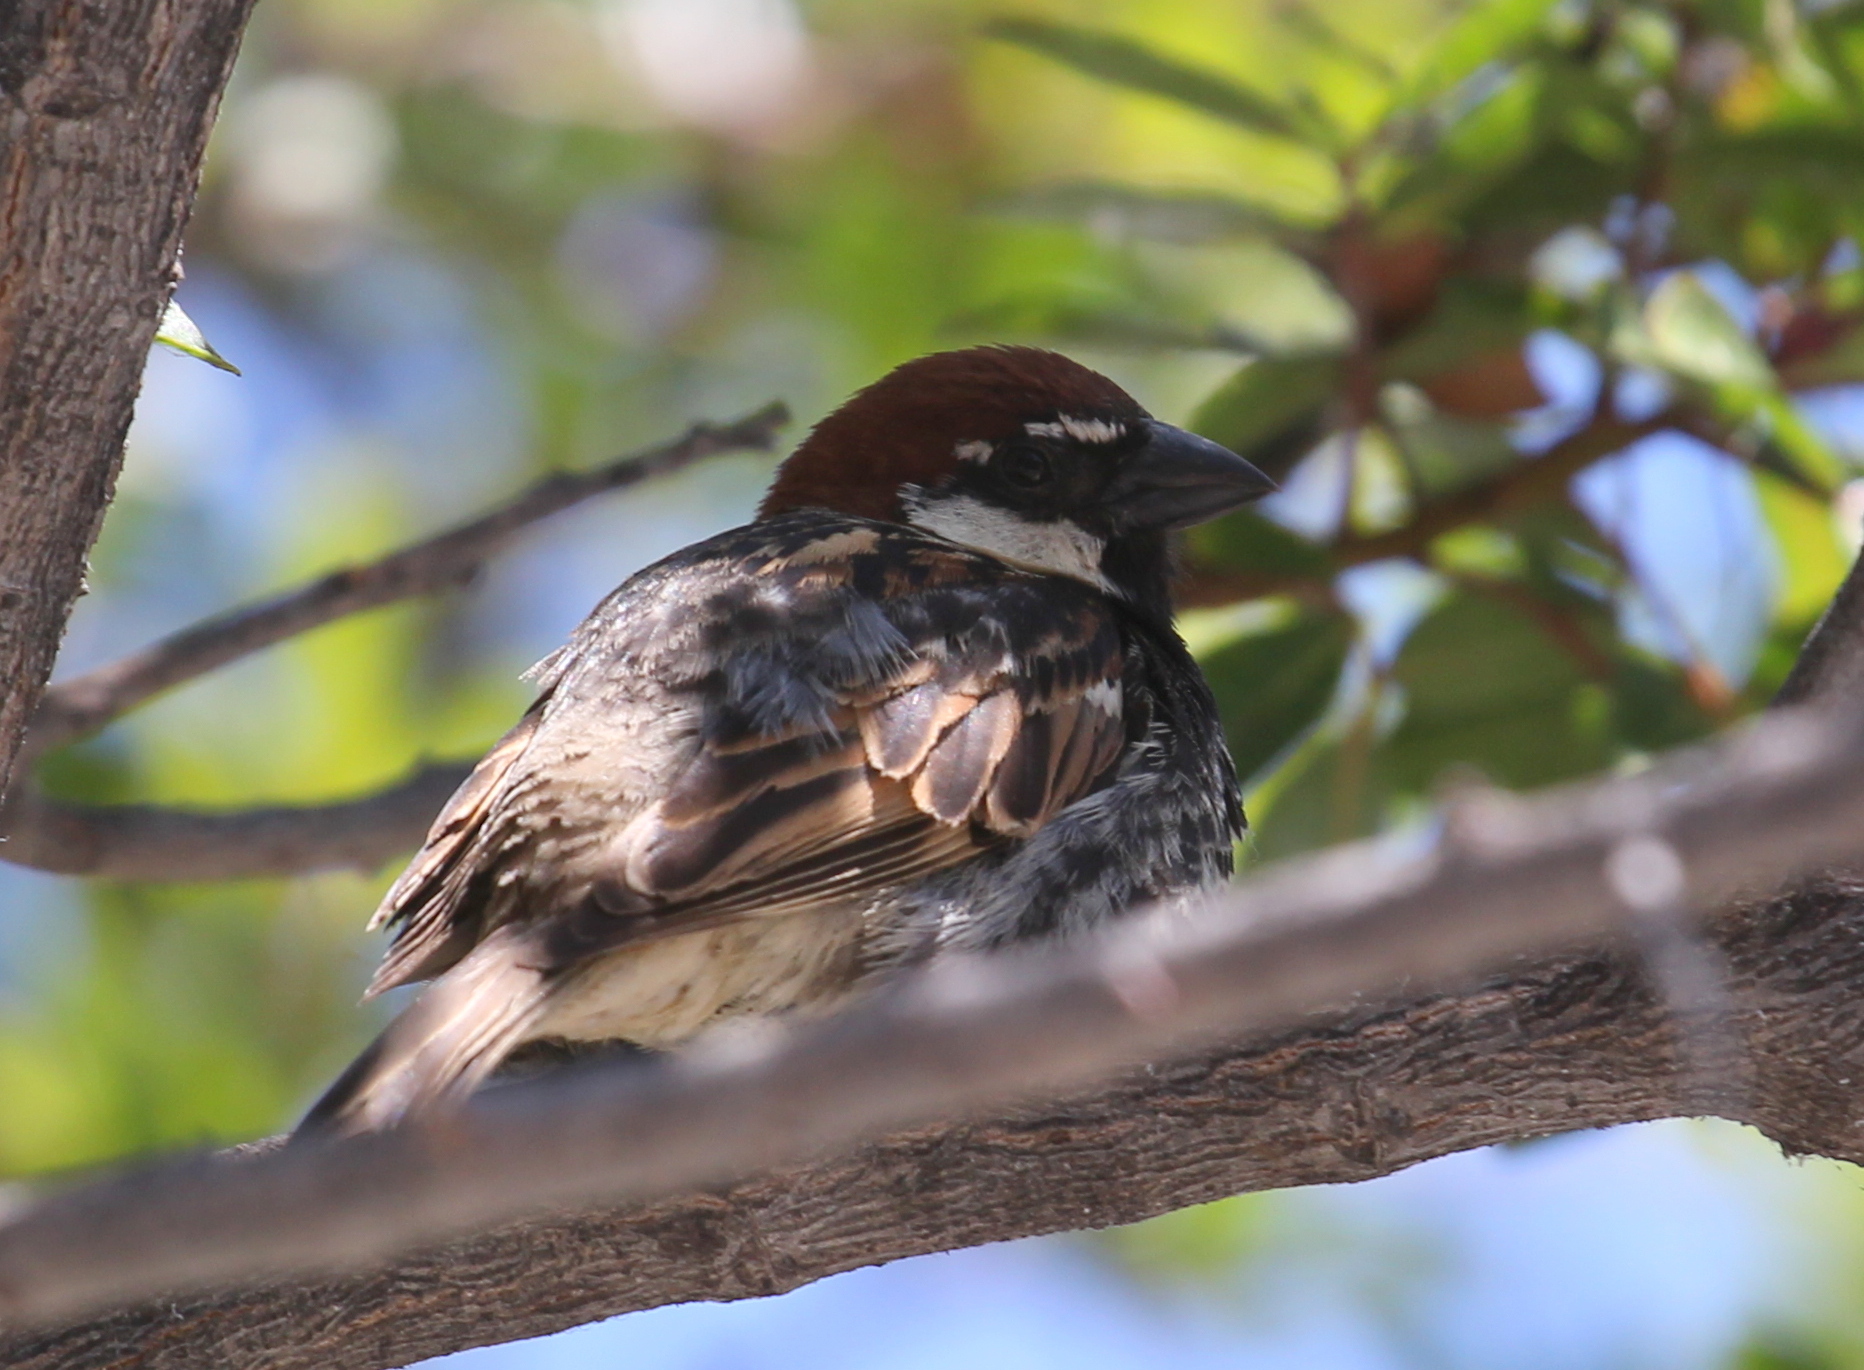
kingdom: Animalia
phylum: Chordata
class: Aves
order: Passeriformes
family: Passeridae
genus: Passer
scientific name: Passer hispaniolensis
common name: Spanish sparrow
